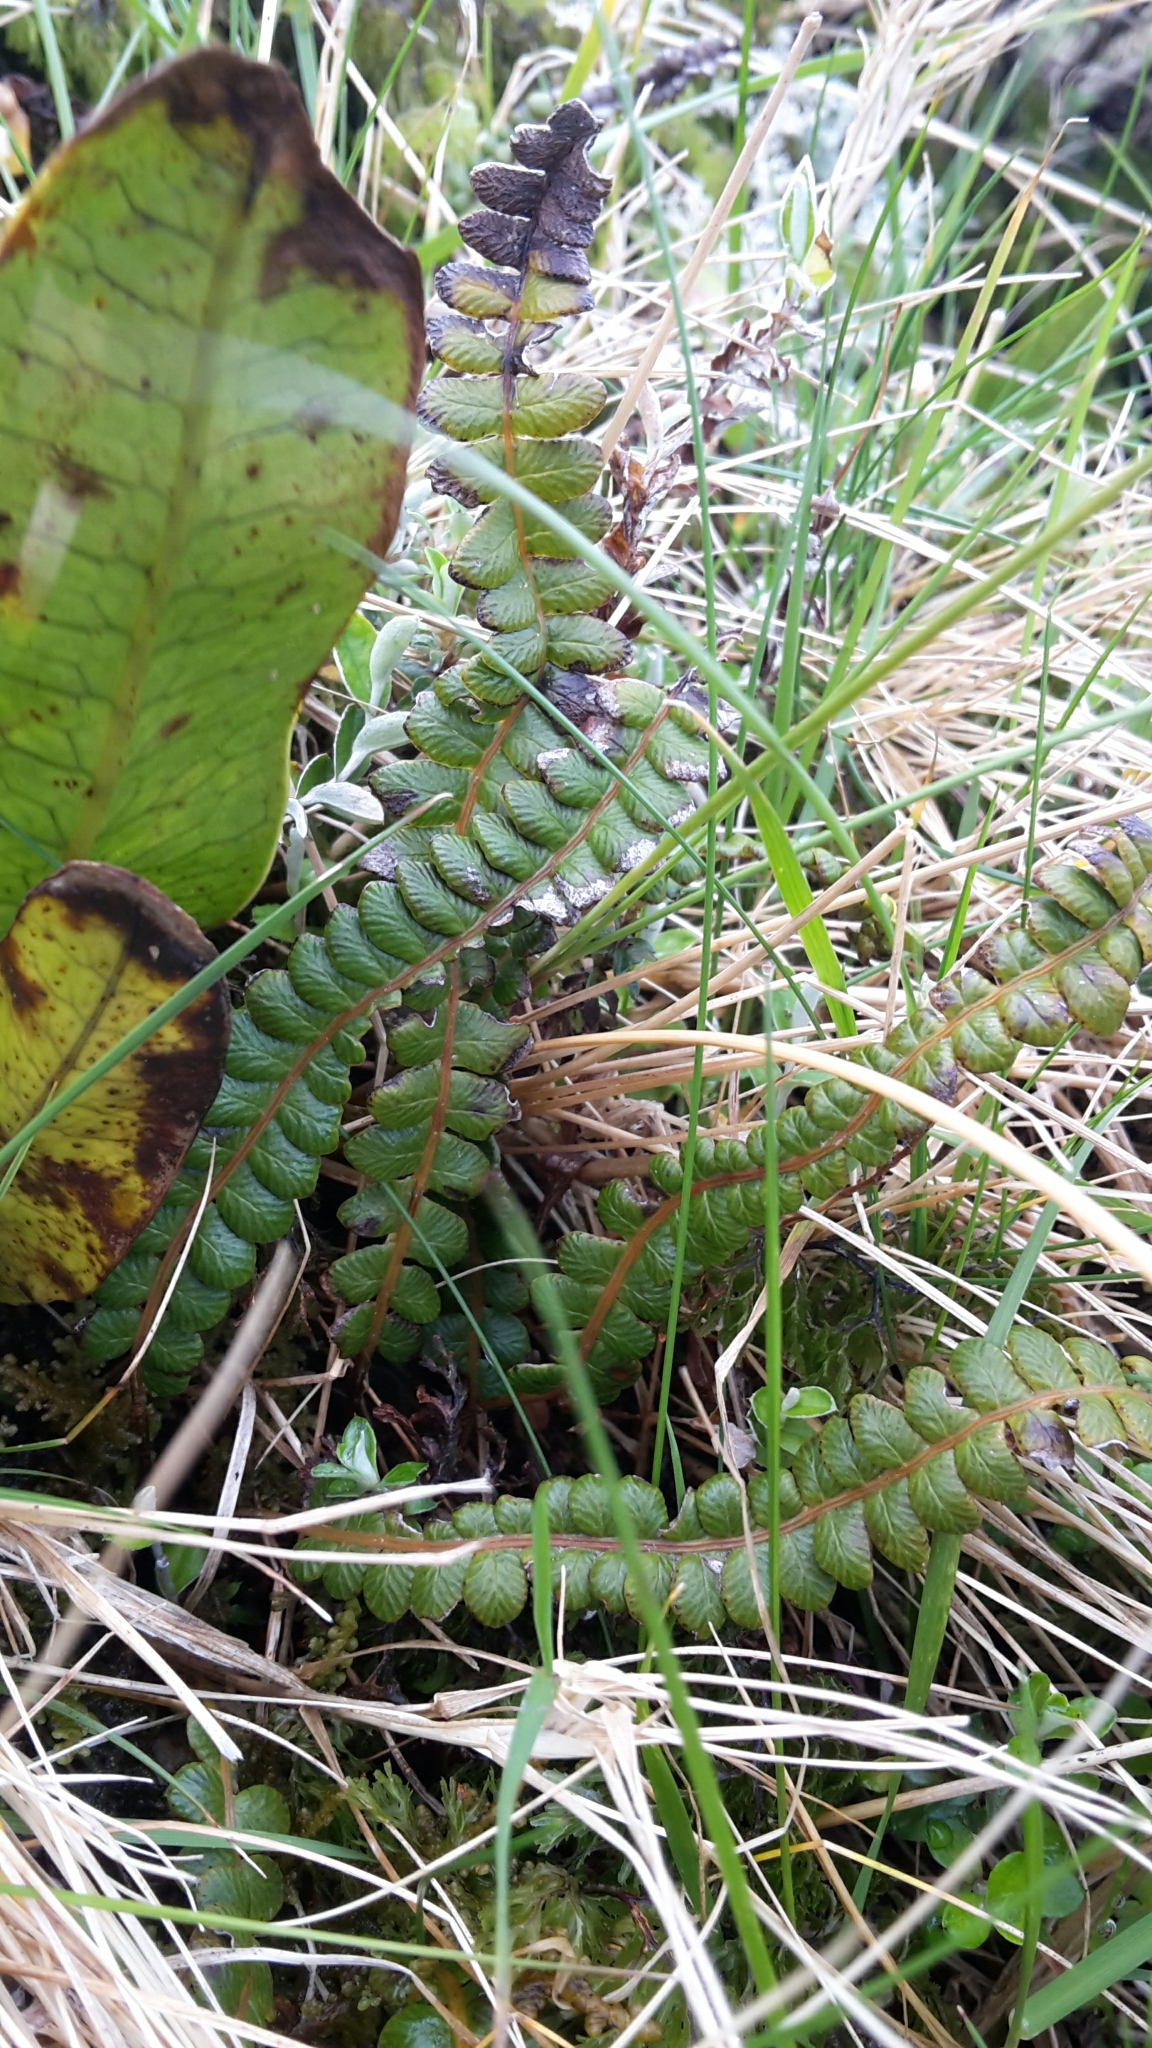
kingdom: Plantae
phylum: Tracheophyta
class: Polypodiopsida
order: Polypodiales
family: Blechnaceae
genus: Austroblechnum
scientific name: Austroblechnum penna-marina
